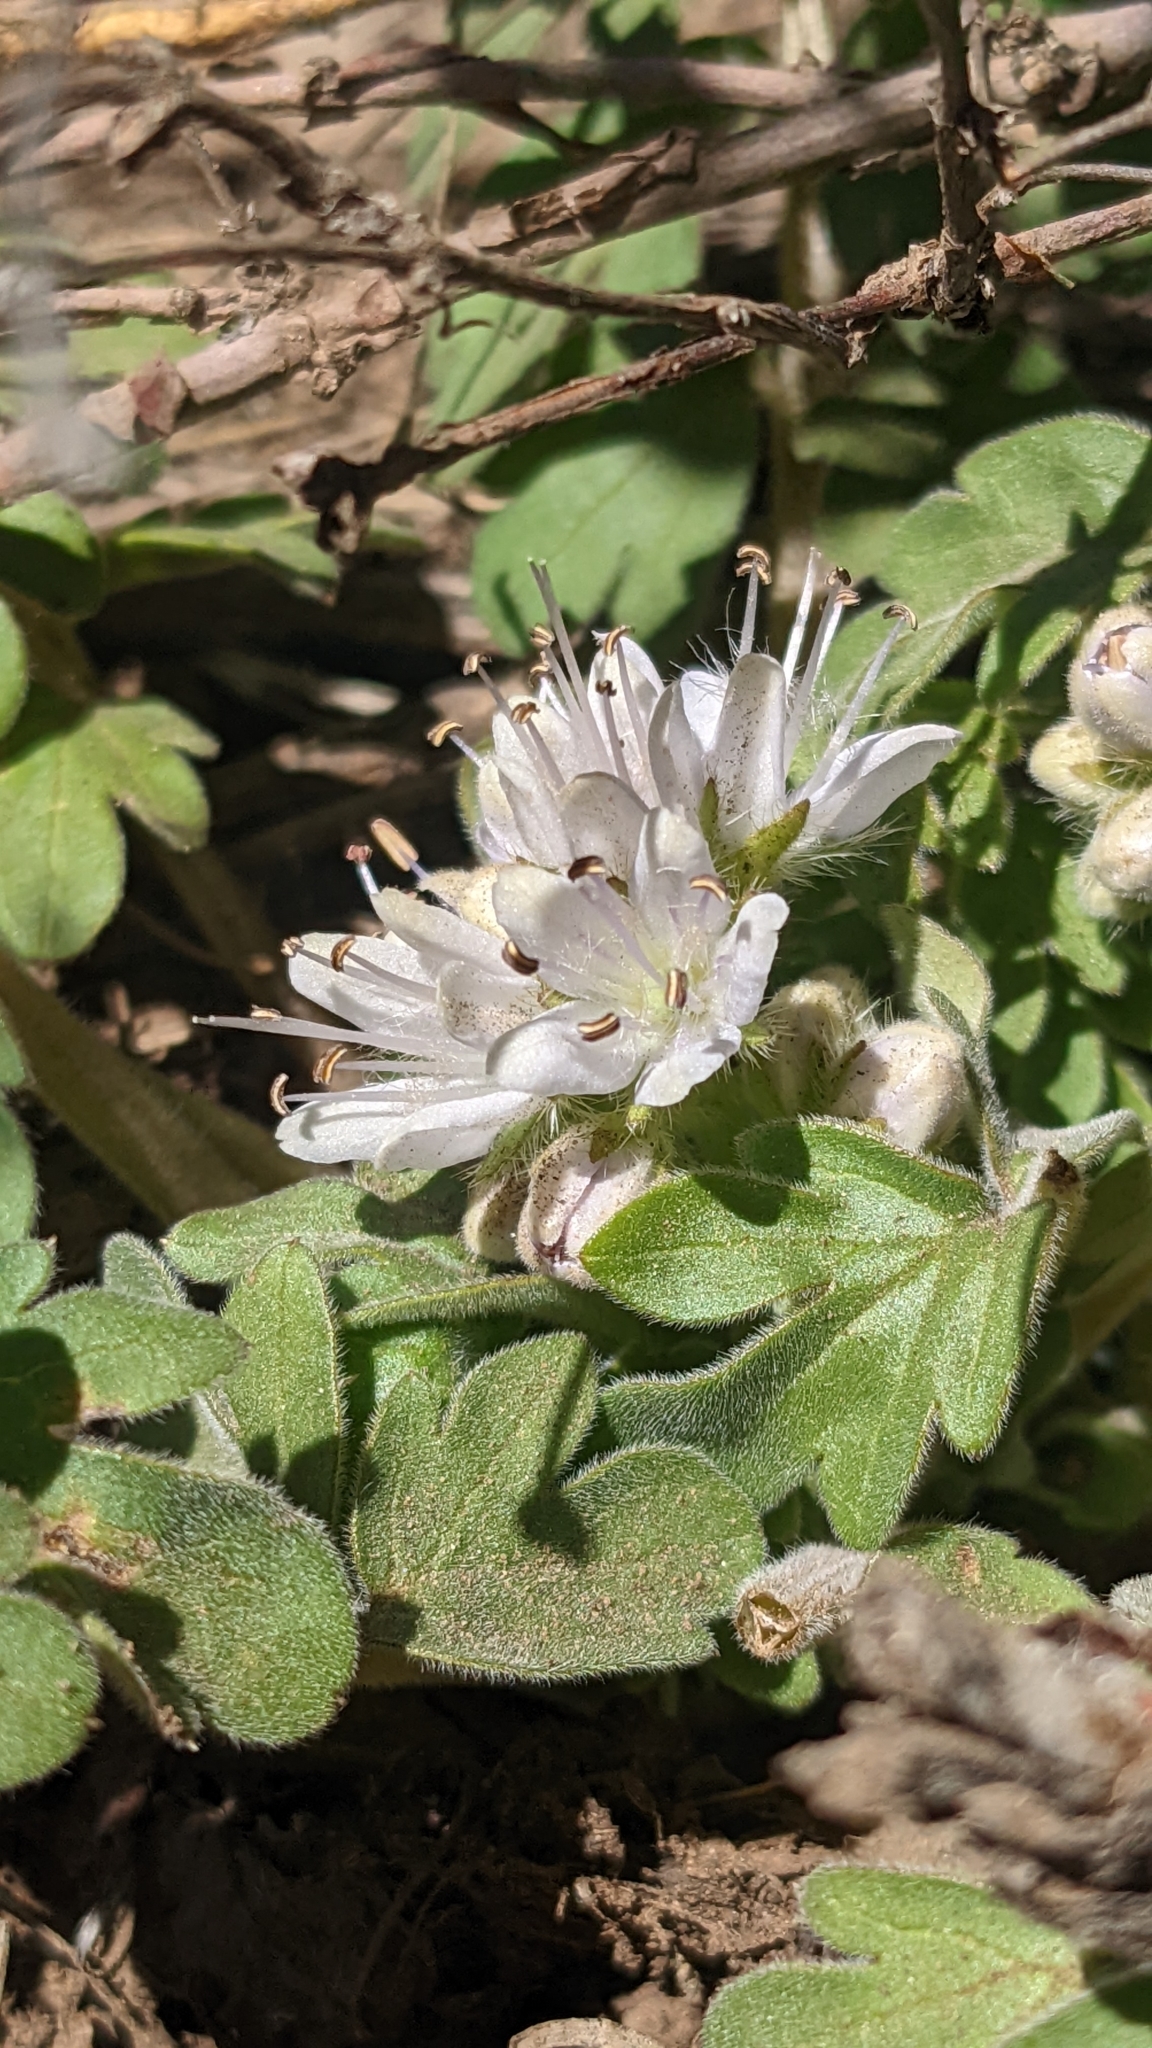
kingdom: Plantae
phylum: Tracheophyta
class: Magnoliopsida
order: Boraginales
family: Hydrophyllaceae
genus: Hydrophyllum
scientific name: Hydrophyllum occidentale
